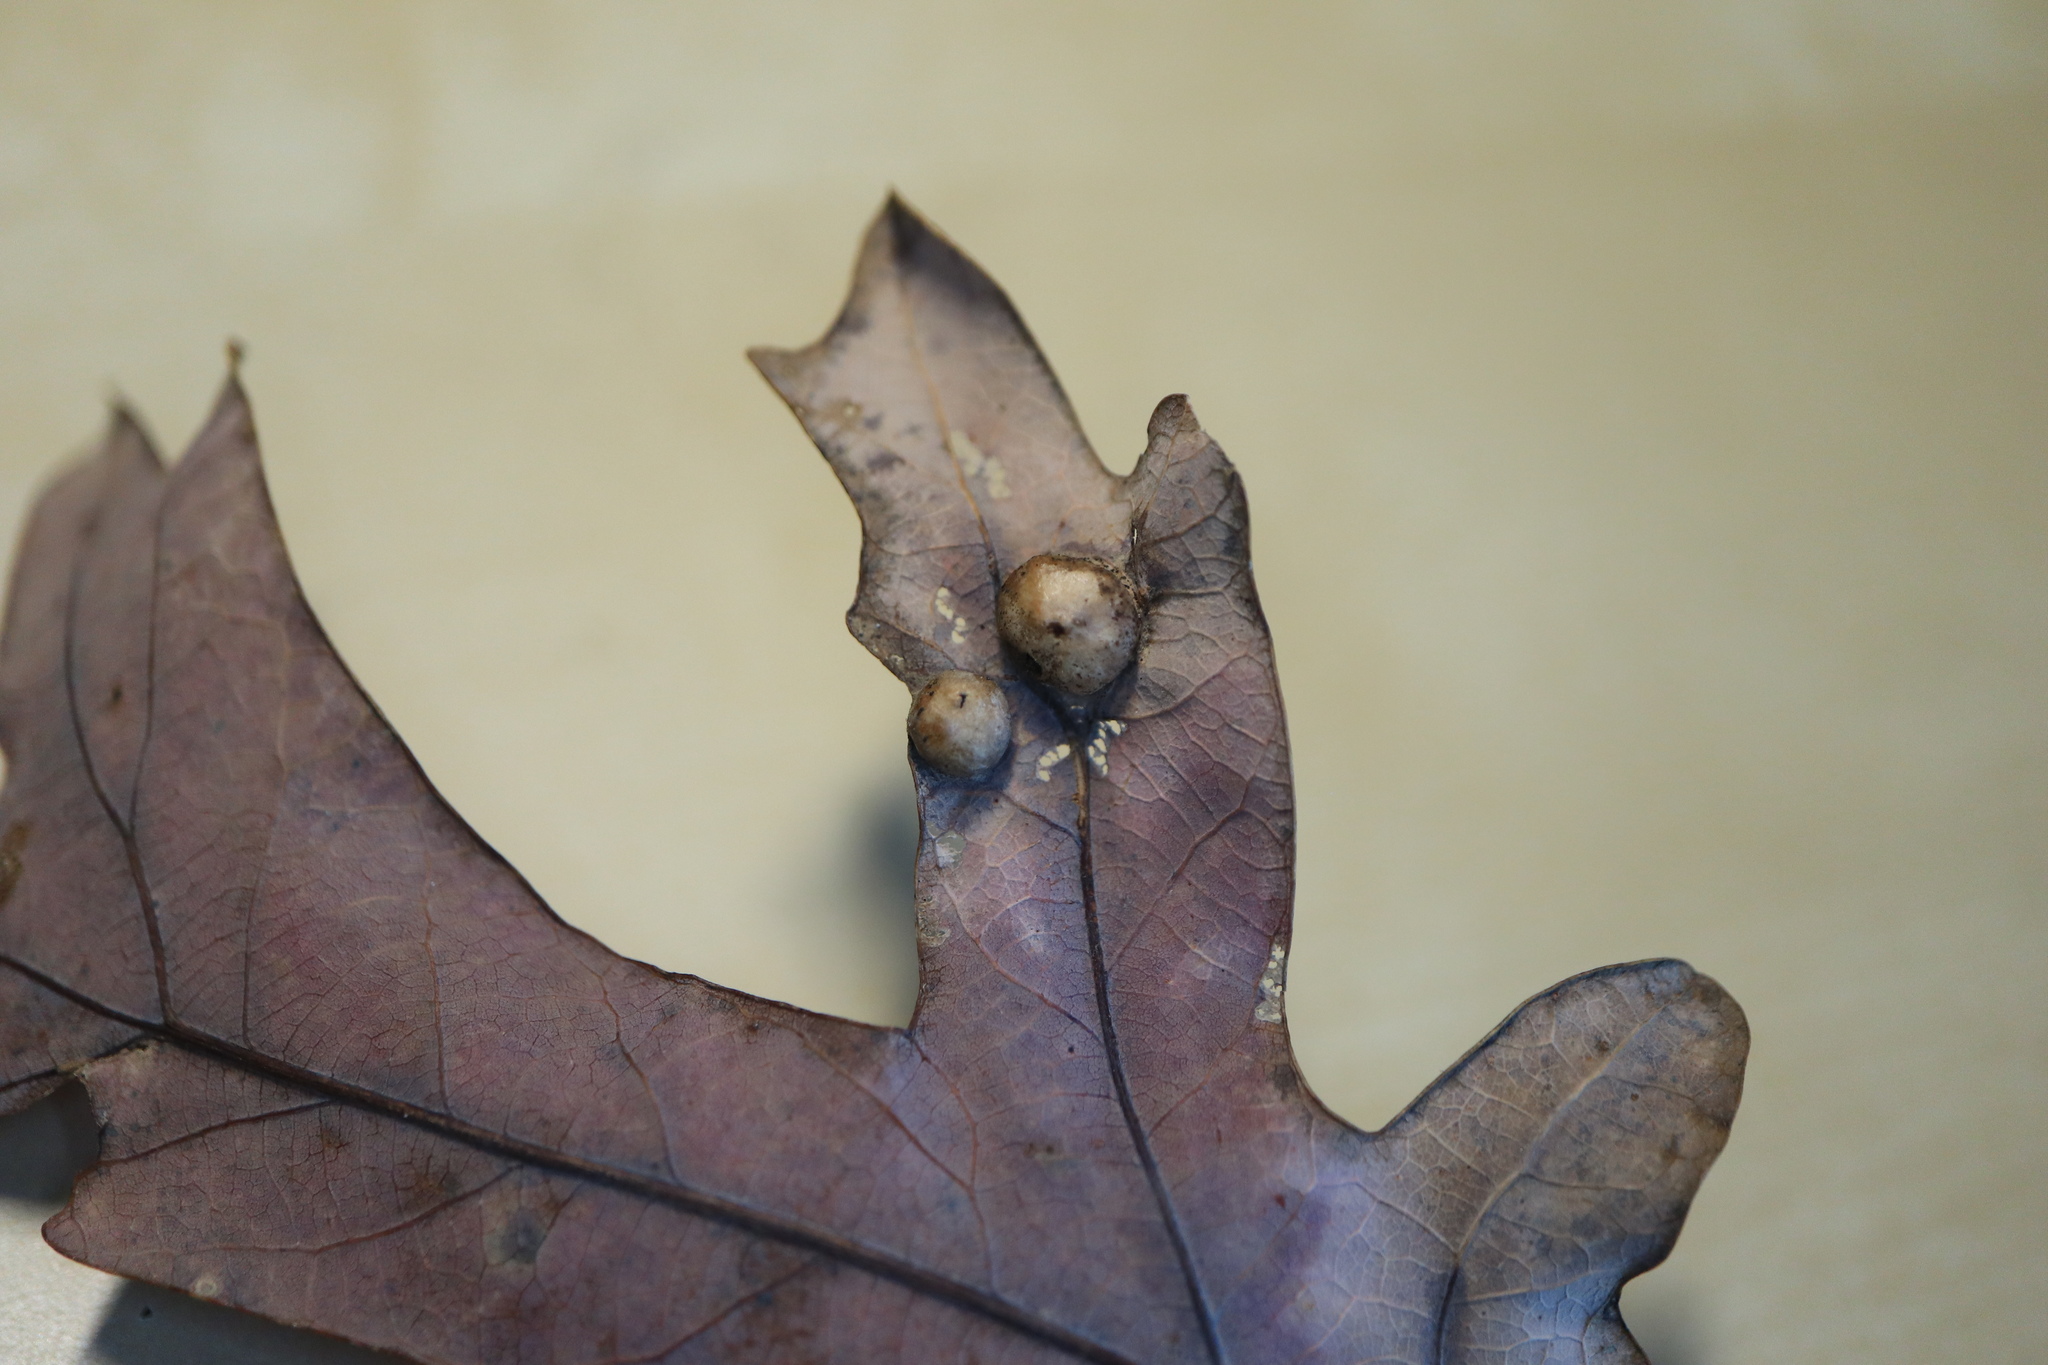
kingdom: Animalia
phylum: Arthropoda
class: Insecta
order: Hymenoptera
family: Cynipidae
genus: Callirhytis
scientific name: Callirhytis
